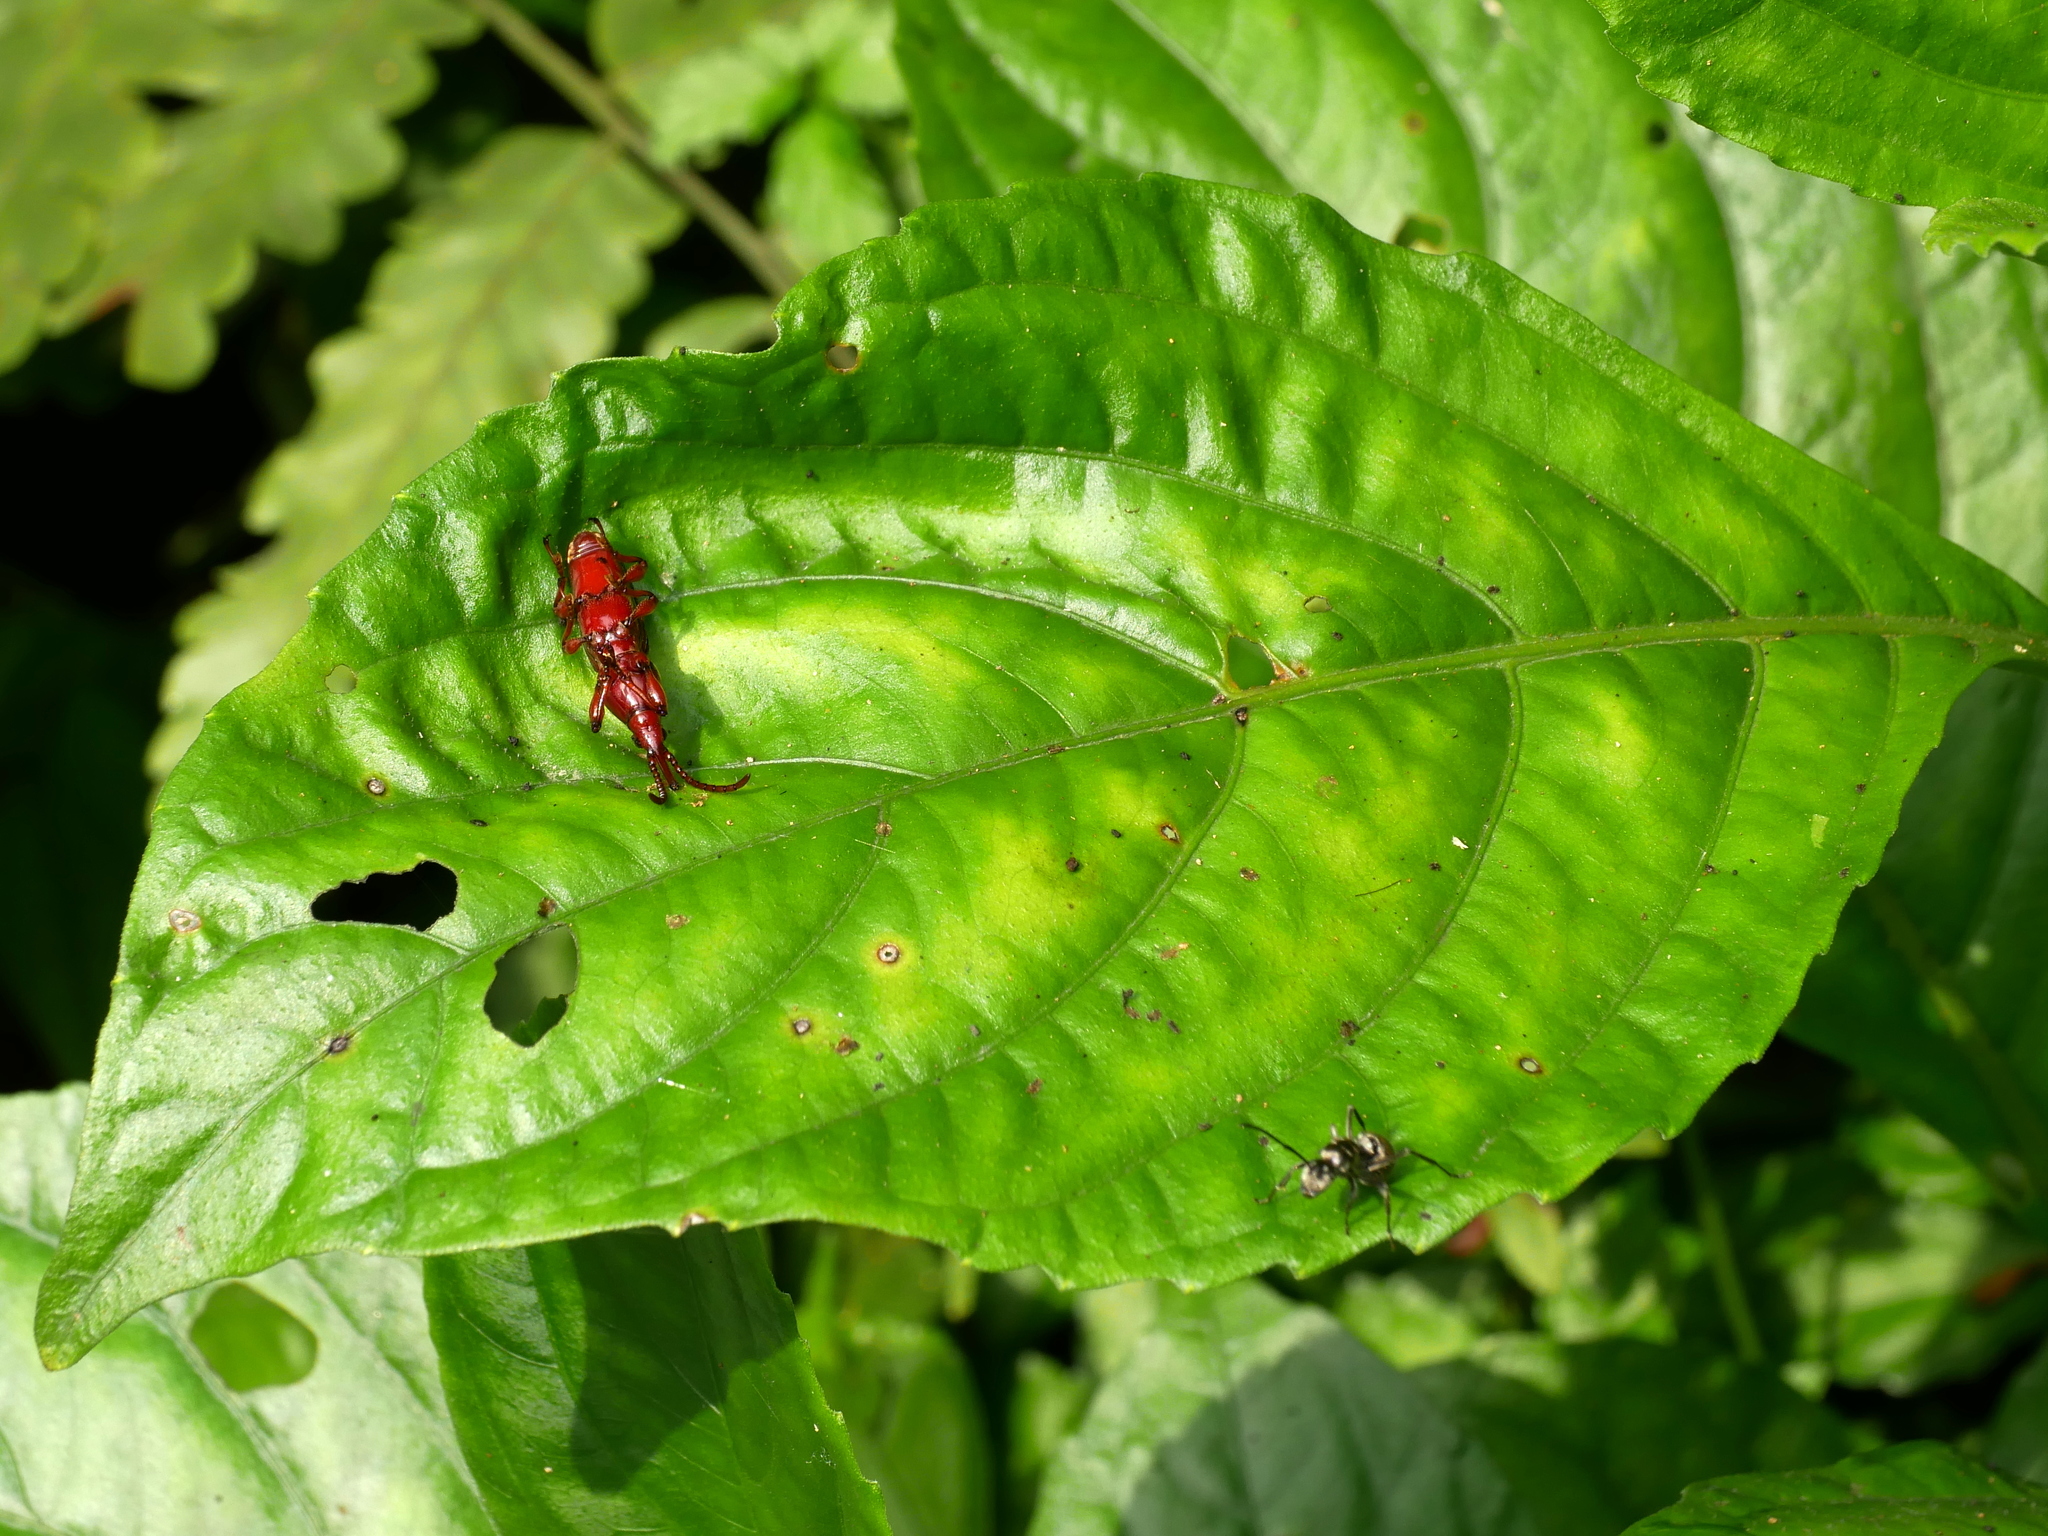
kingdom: Animalia
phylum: Arthropoda
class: Insecta
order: Coleoptera
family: Brentidae
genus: Baryrhynchus
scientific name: Baryrhynchus poweri
